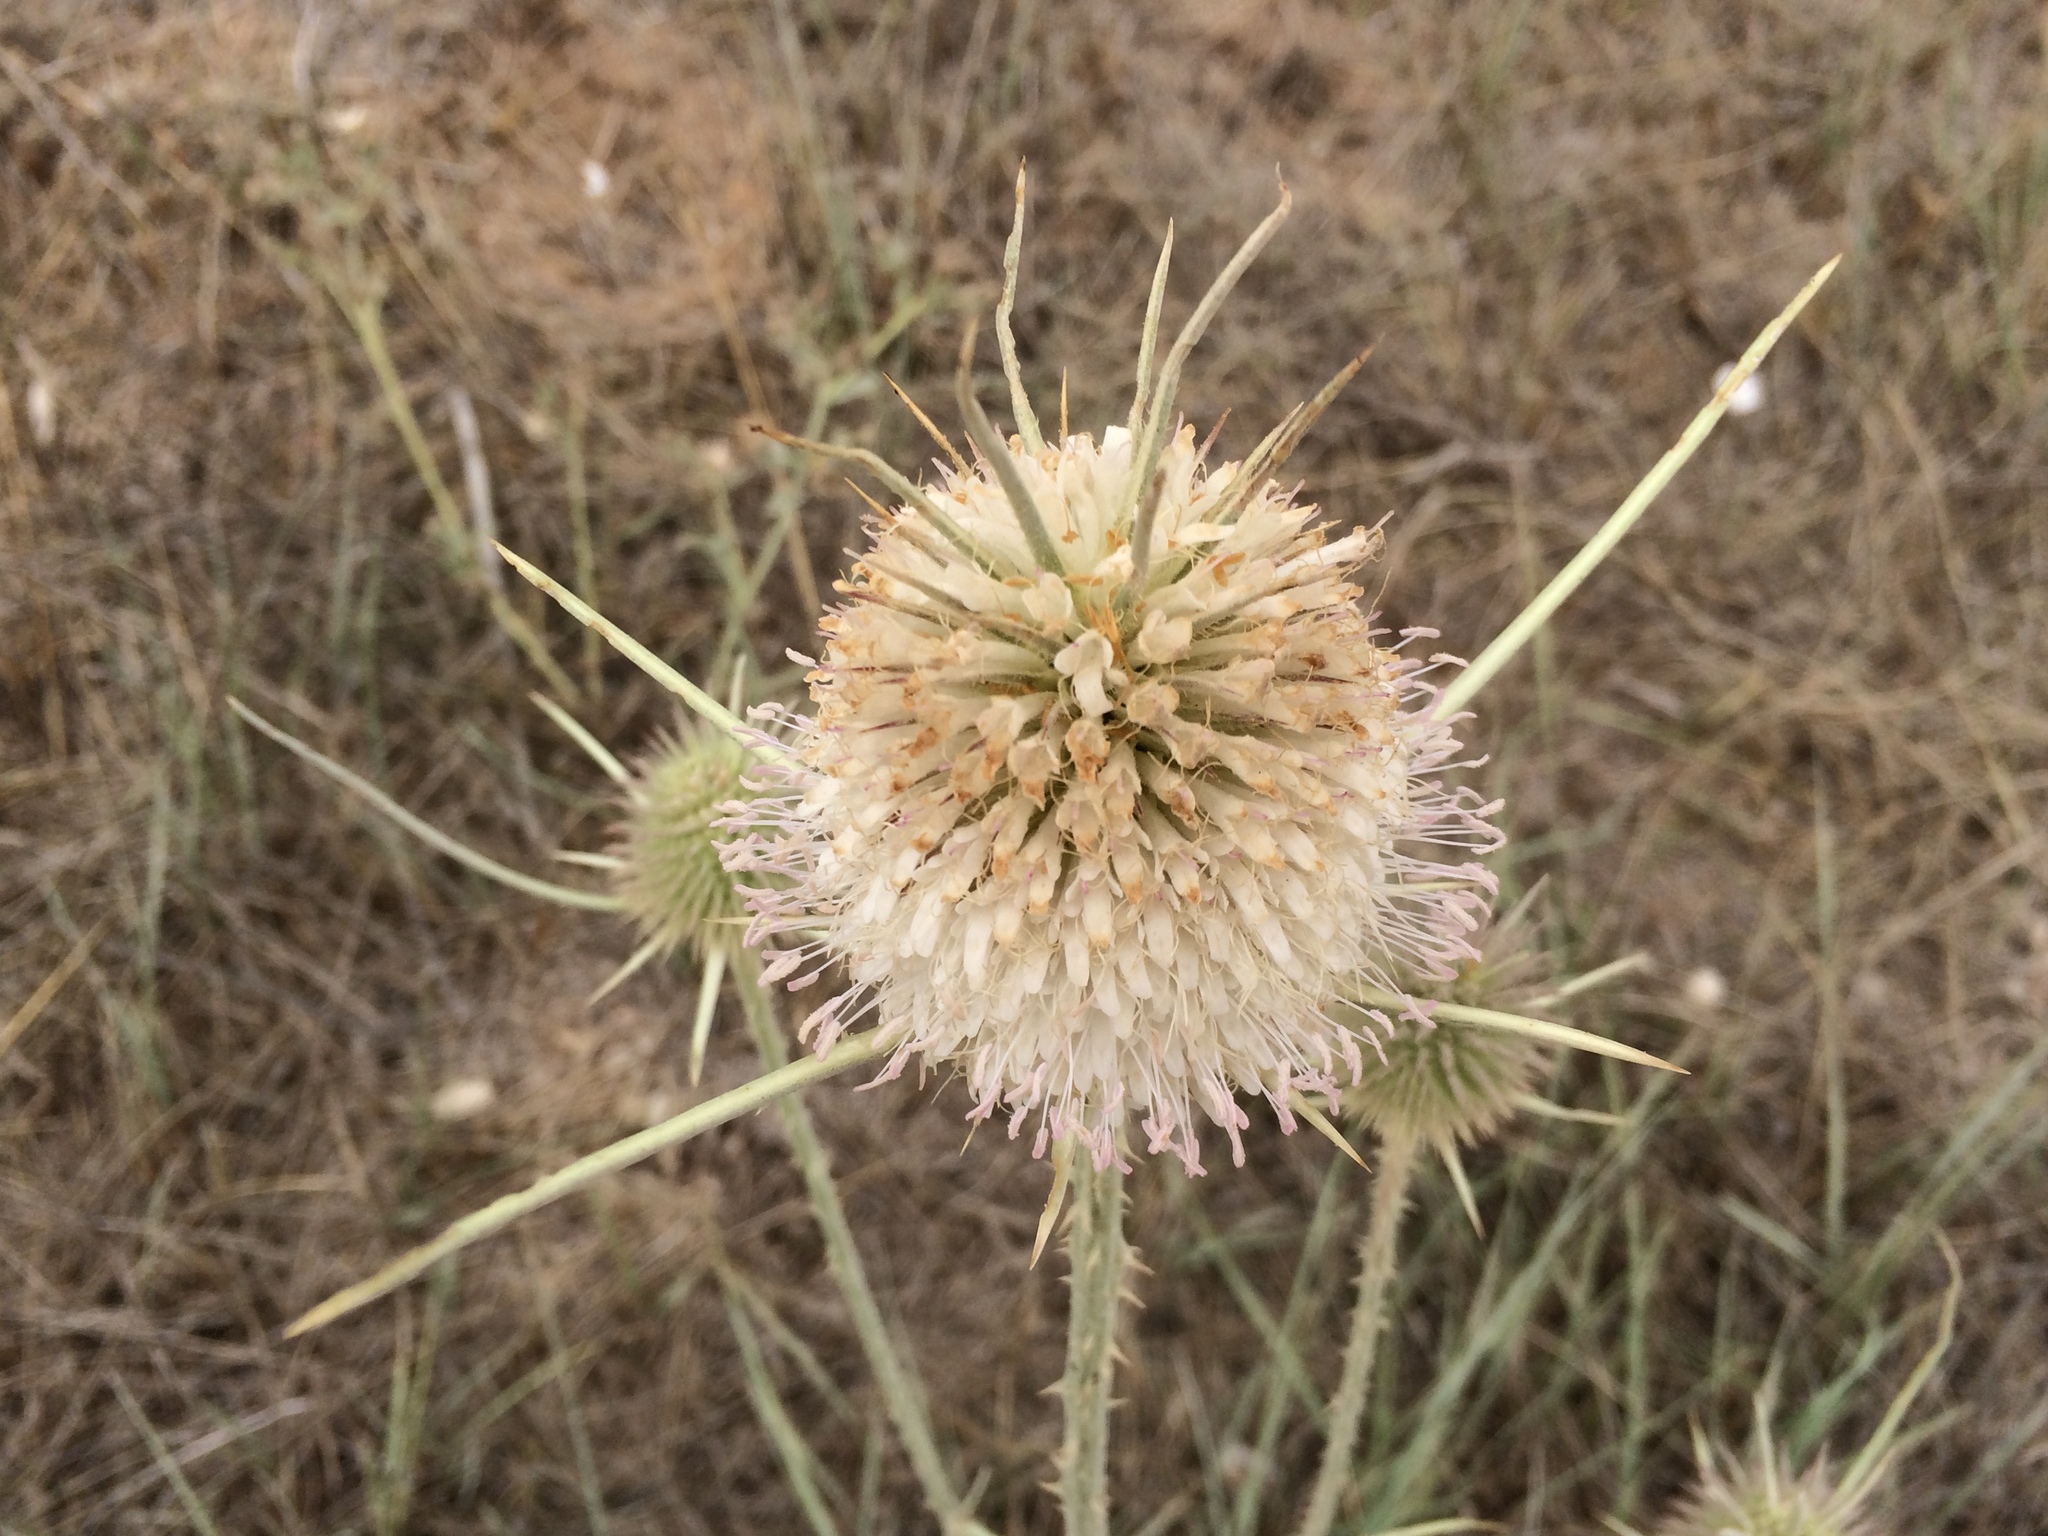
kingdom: Plantae
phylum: Tracheophyta
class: Magnoliopsida
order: Dipsacales
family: Caprifoliaceae
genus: Dipsacus
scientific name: Dipsacus comosus
